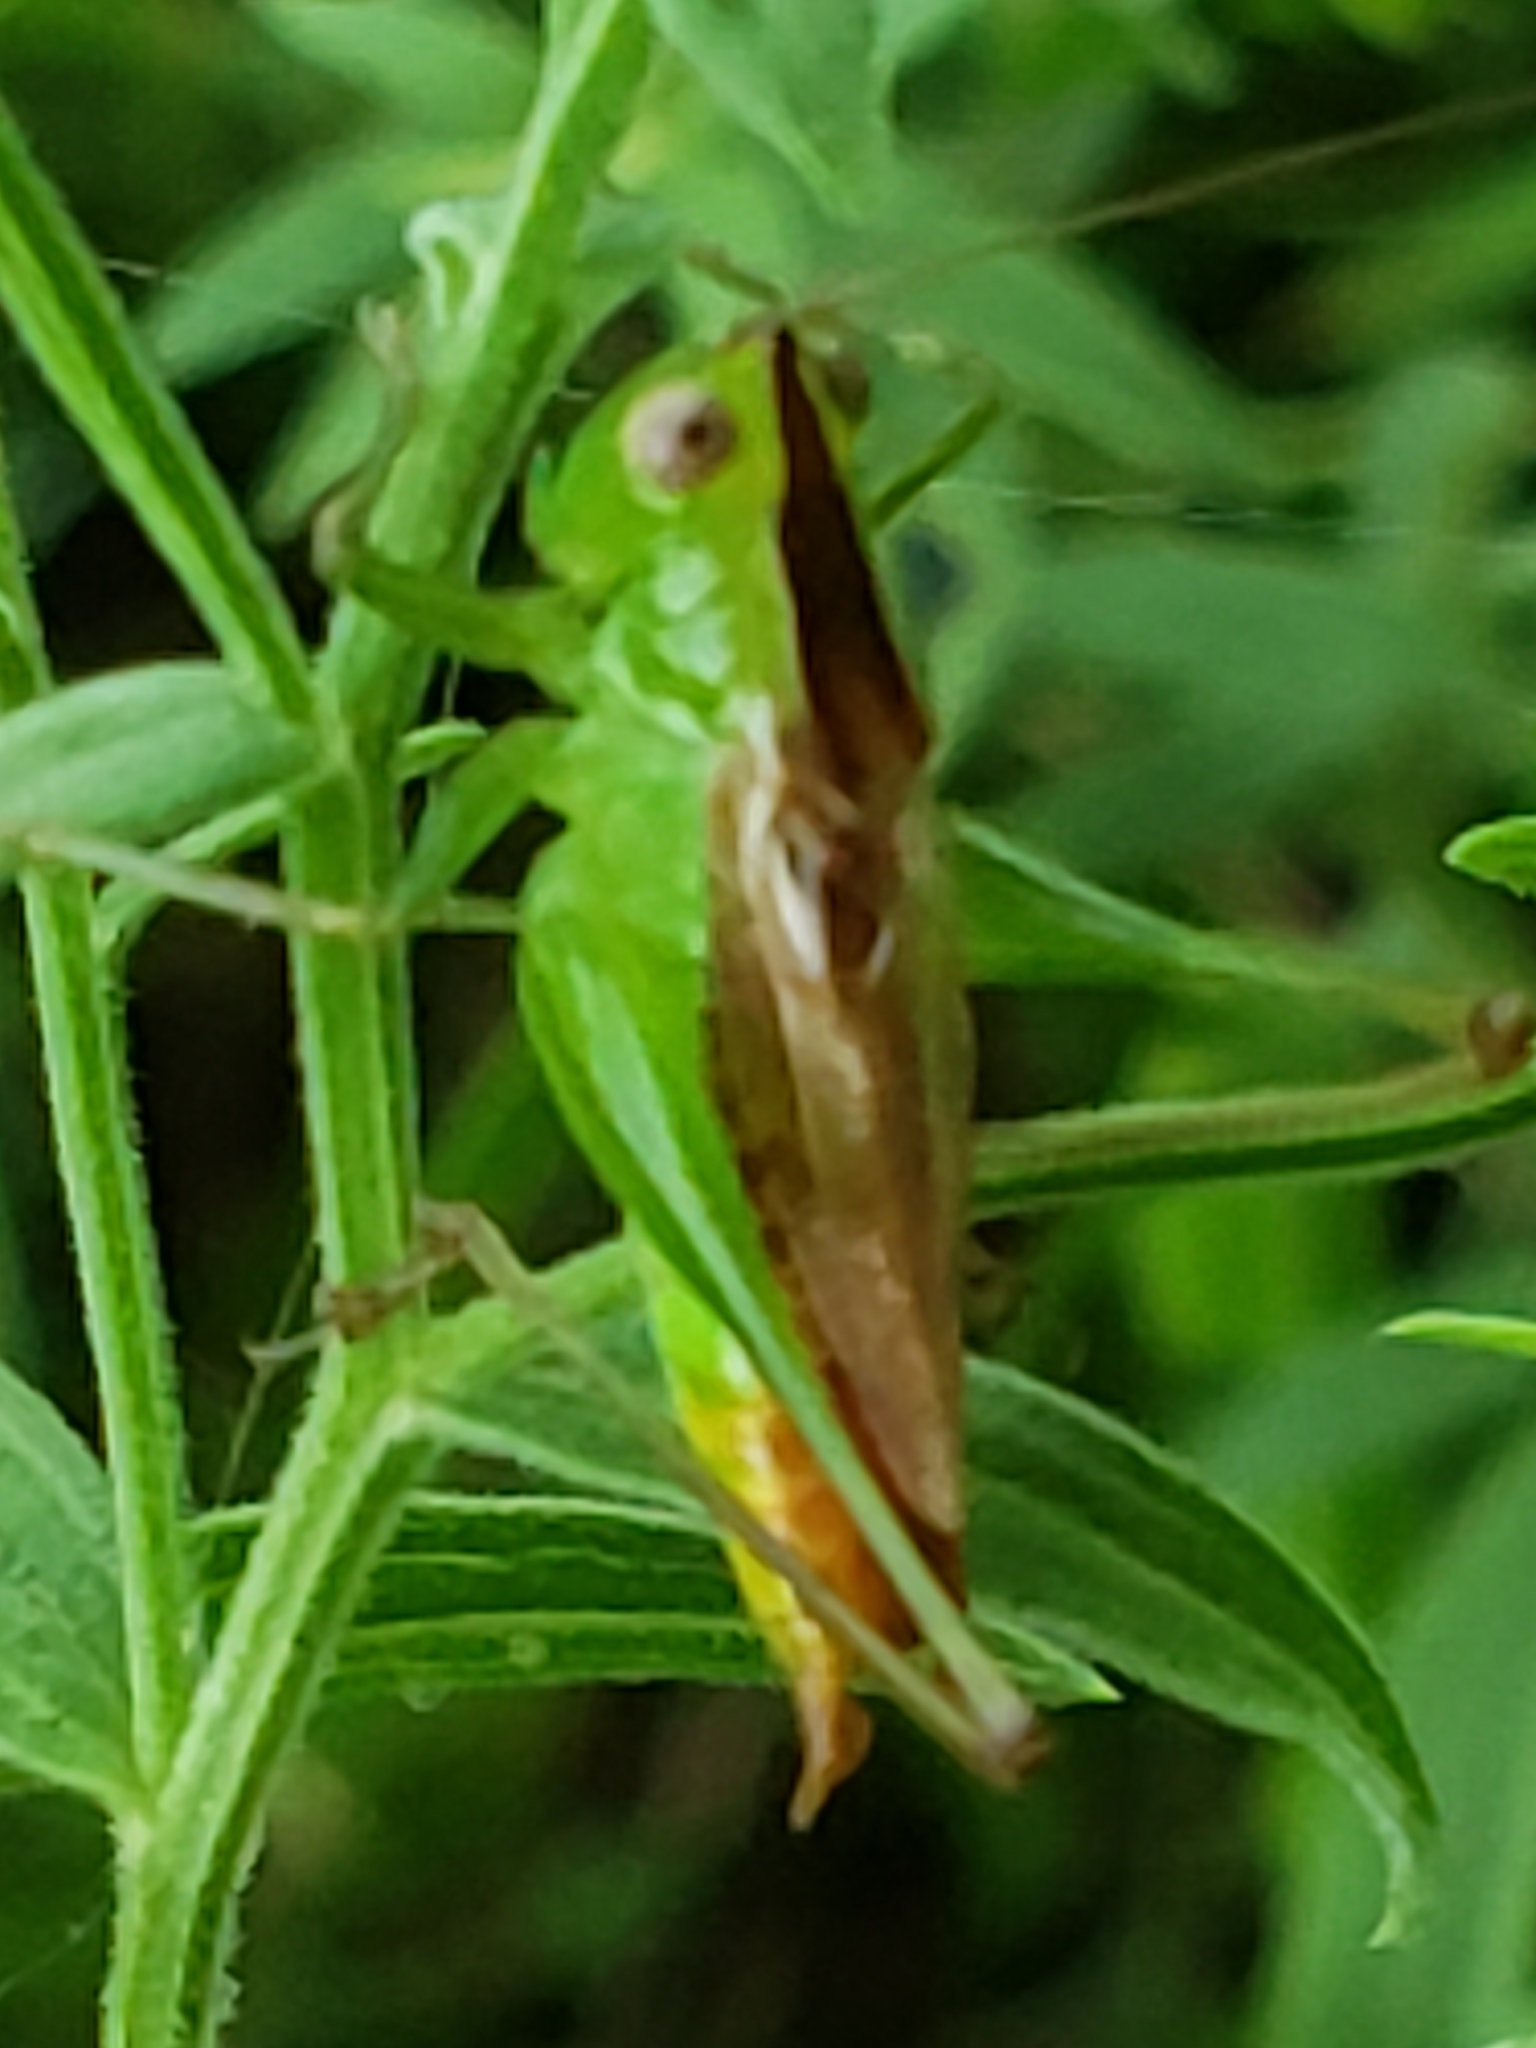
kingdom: Animalia
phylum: Arthropoda
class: Insecta
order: Orthoptera
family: Tettigoniidae
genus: Conocephalus
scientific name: Conocephalus brevipennis
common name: Short-winged meadow katydid
